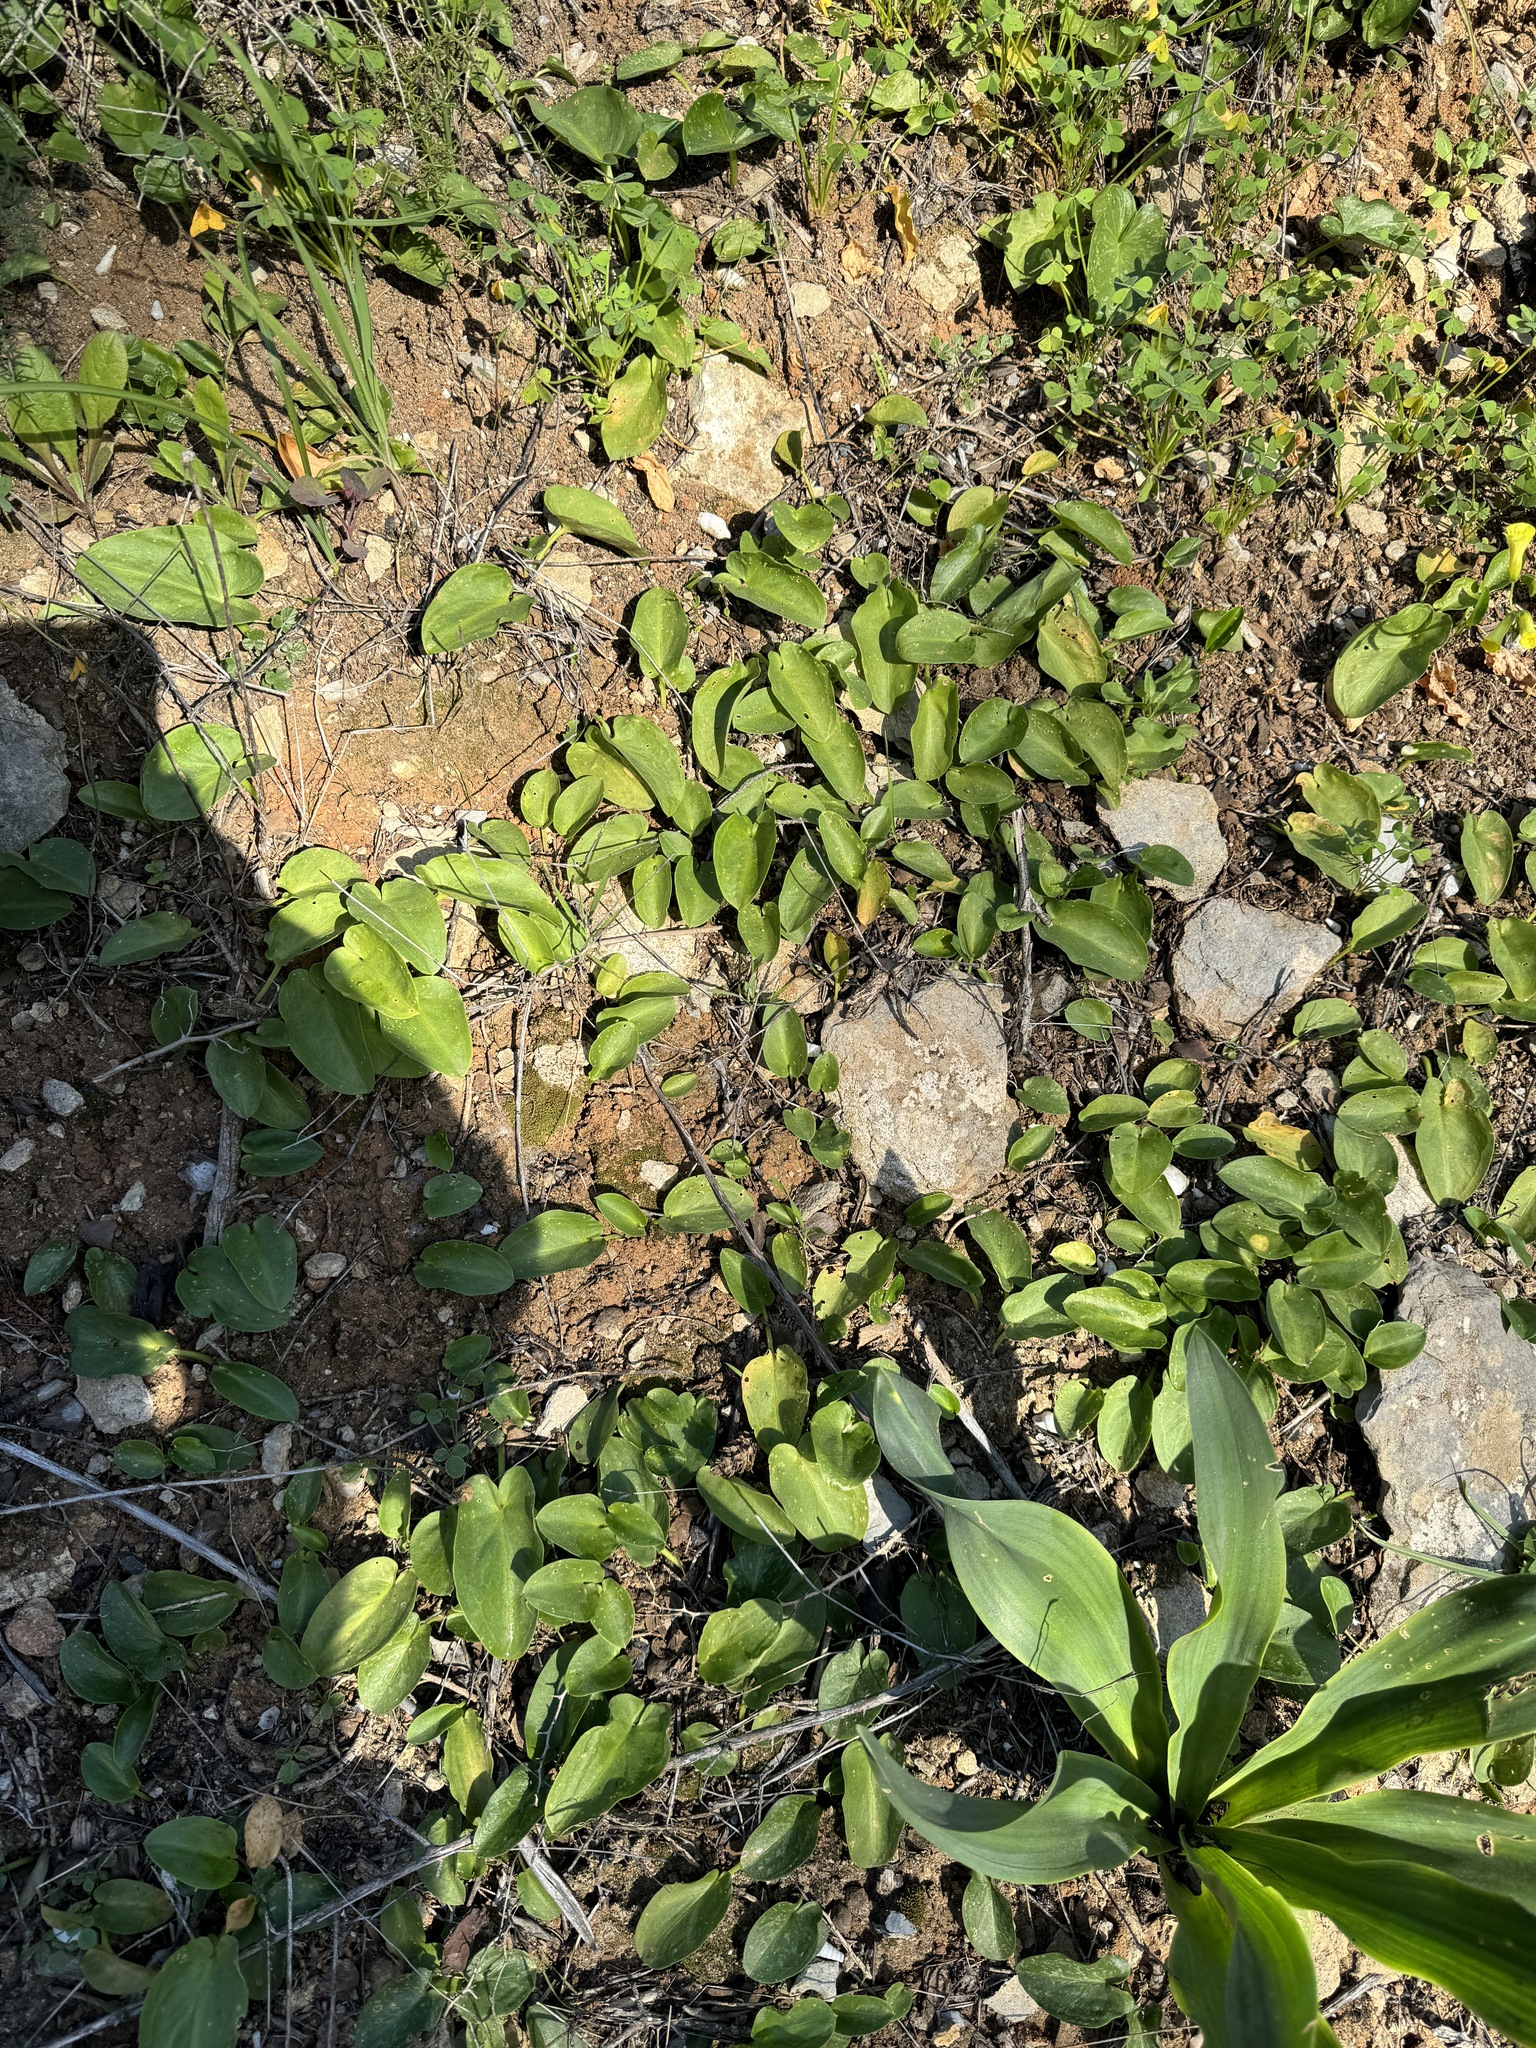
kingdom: Plantae
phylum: Tracheophyta
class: Liliopsida
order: Alismatales
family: Araceae
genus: Arisarum
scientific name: Arisarum simorrhinum
